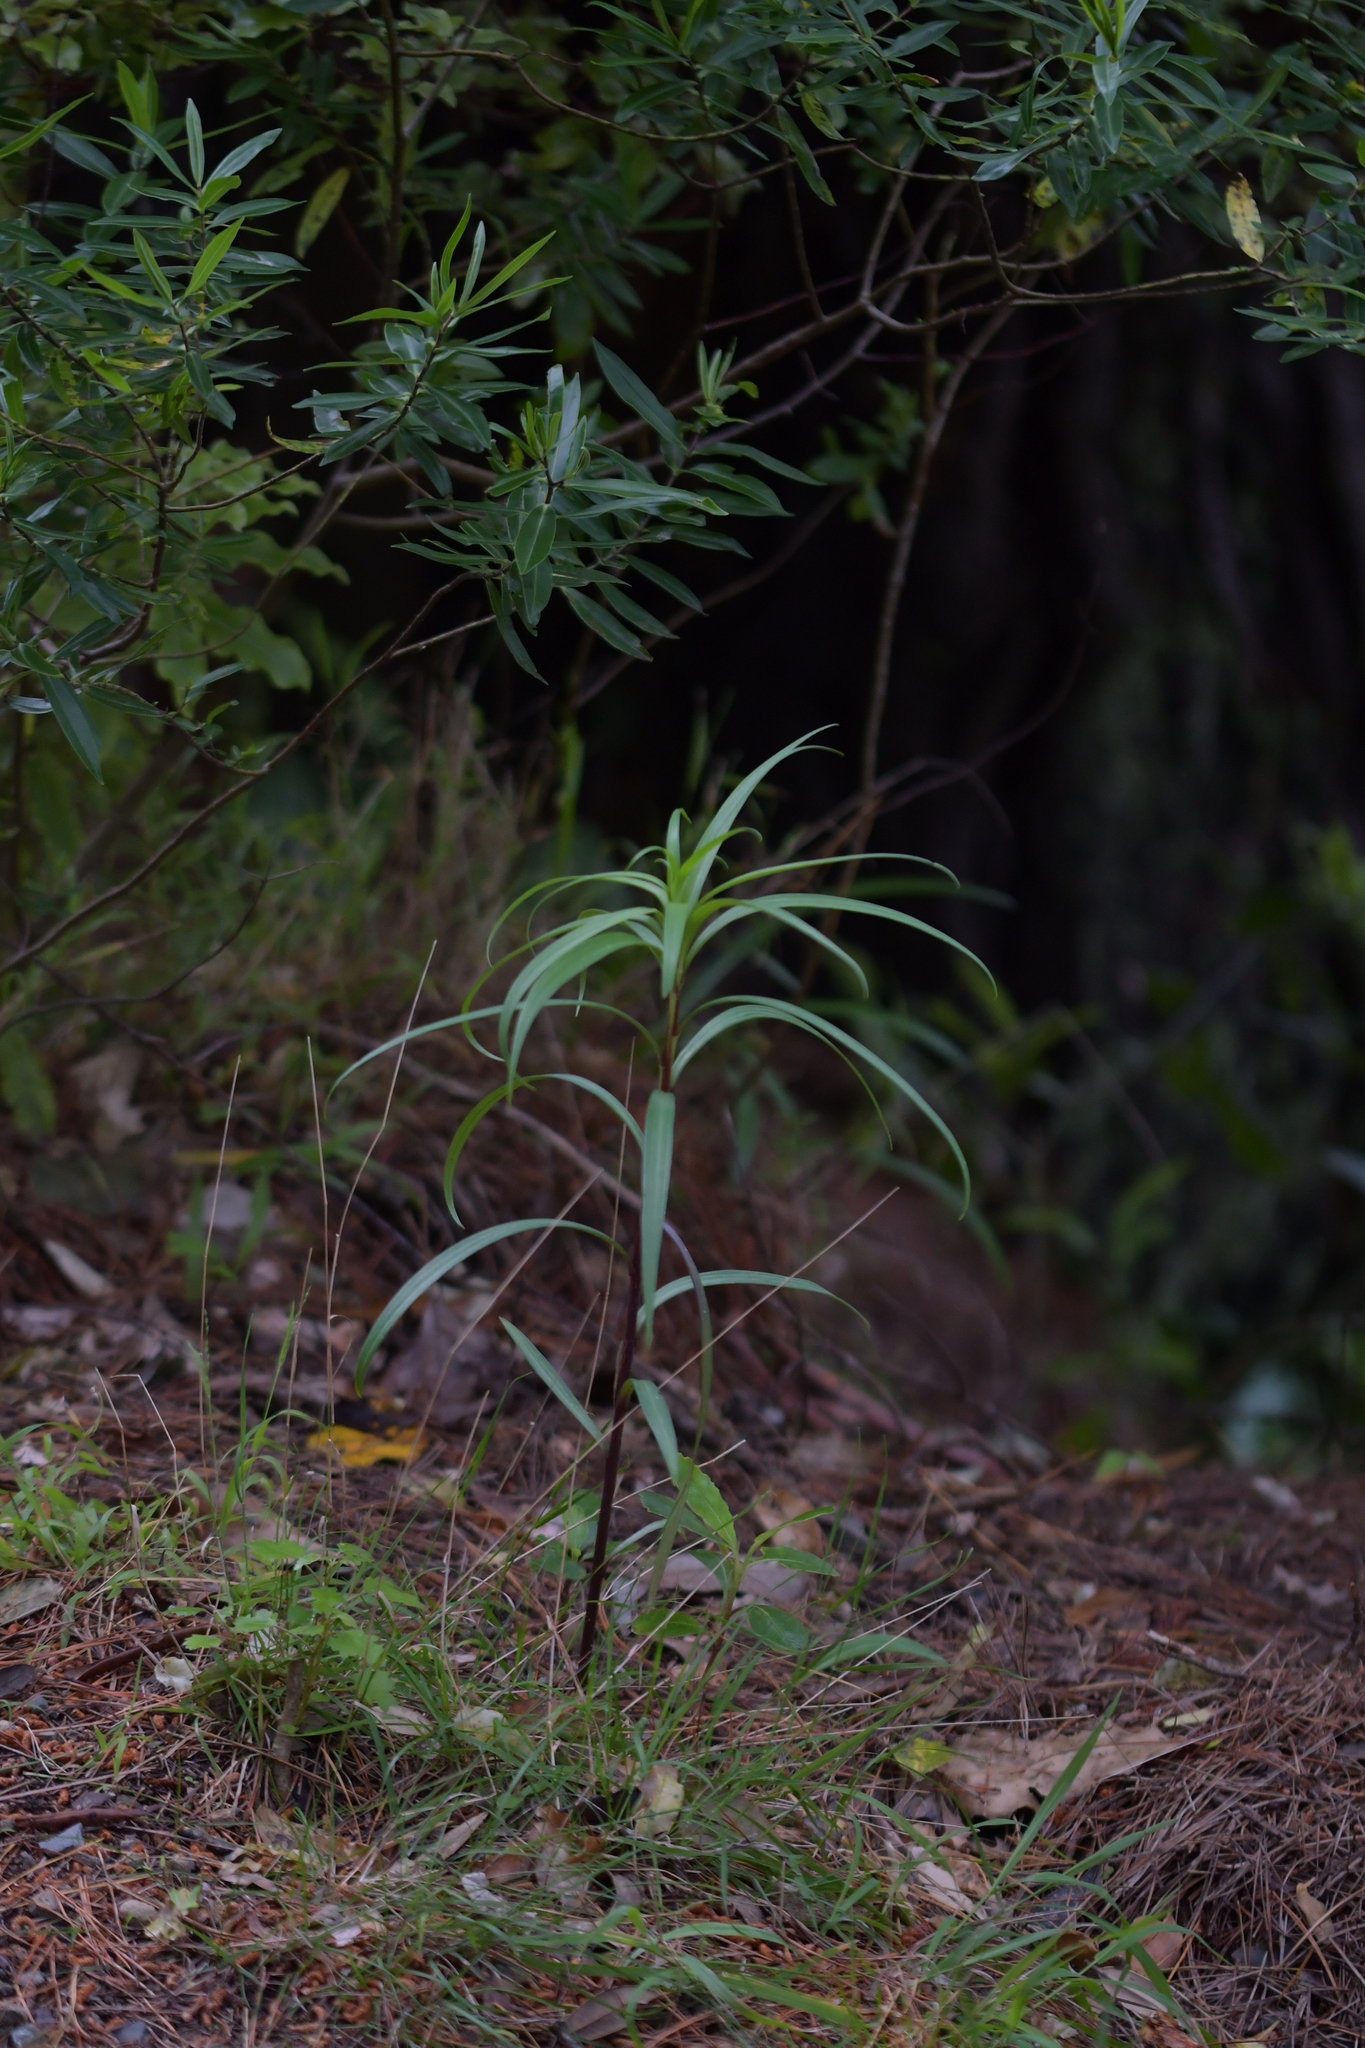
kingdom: Plantae
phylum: Tracheophyta
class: Liliopsida
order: Liliales
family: Liliaceae
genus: Lilium
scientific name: Lilium formosanum
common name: Formosa lily
